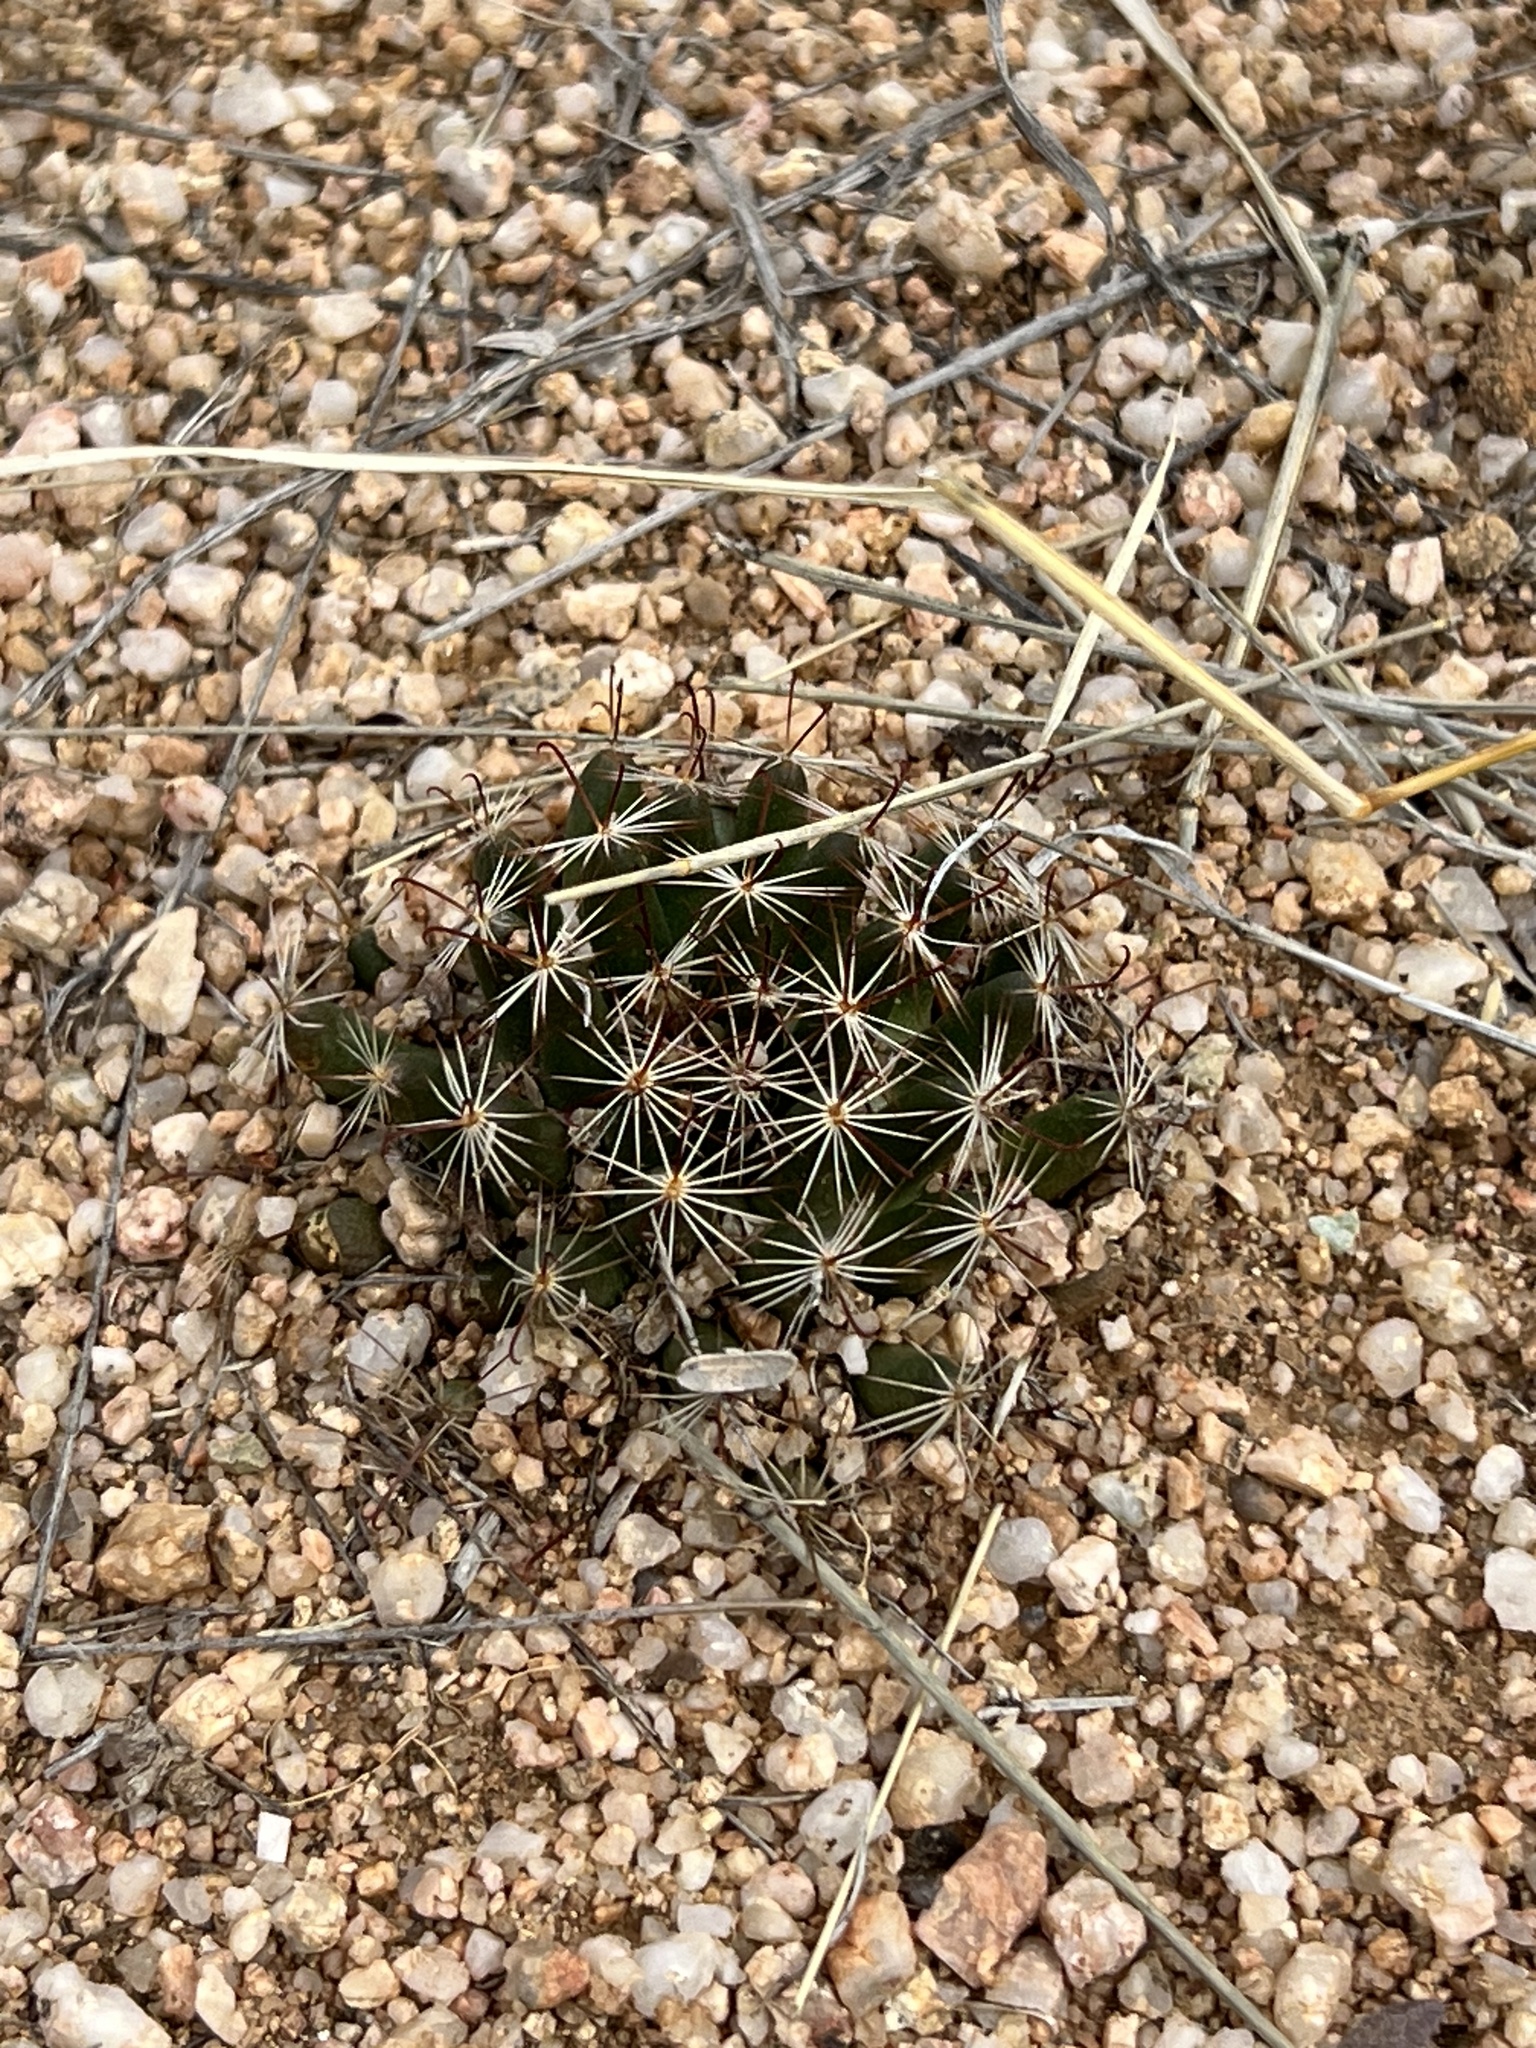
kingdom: Plantae
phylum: Tracheophyta
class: Magnoliopsida
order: Caryophyllales
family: Cactaceae
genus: Cochemiea
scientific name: Cochemiea wrightii
